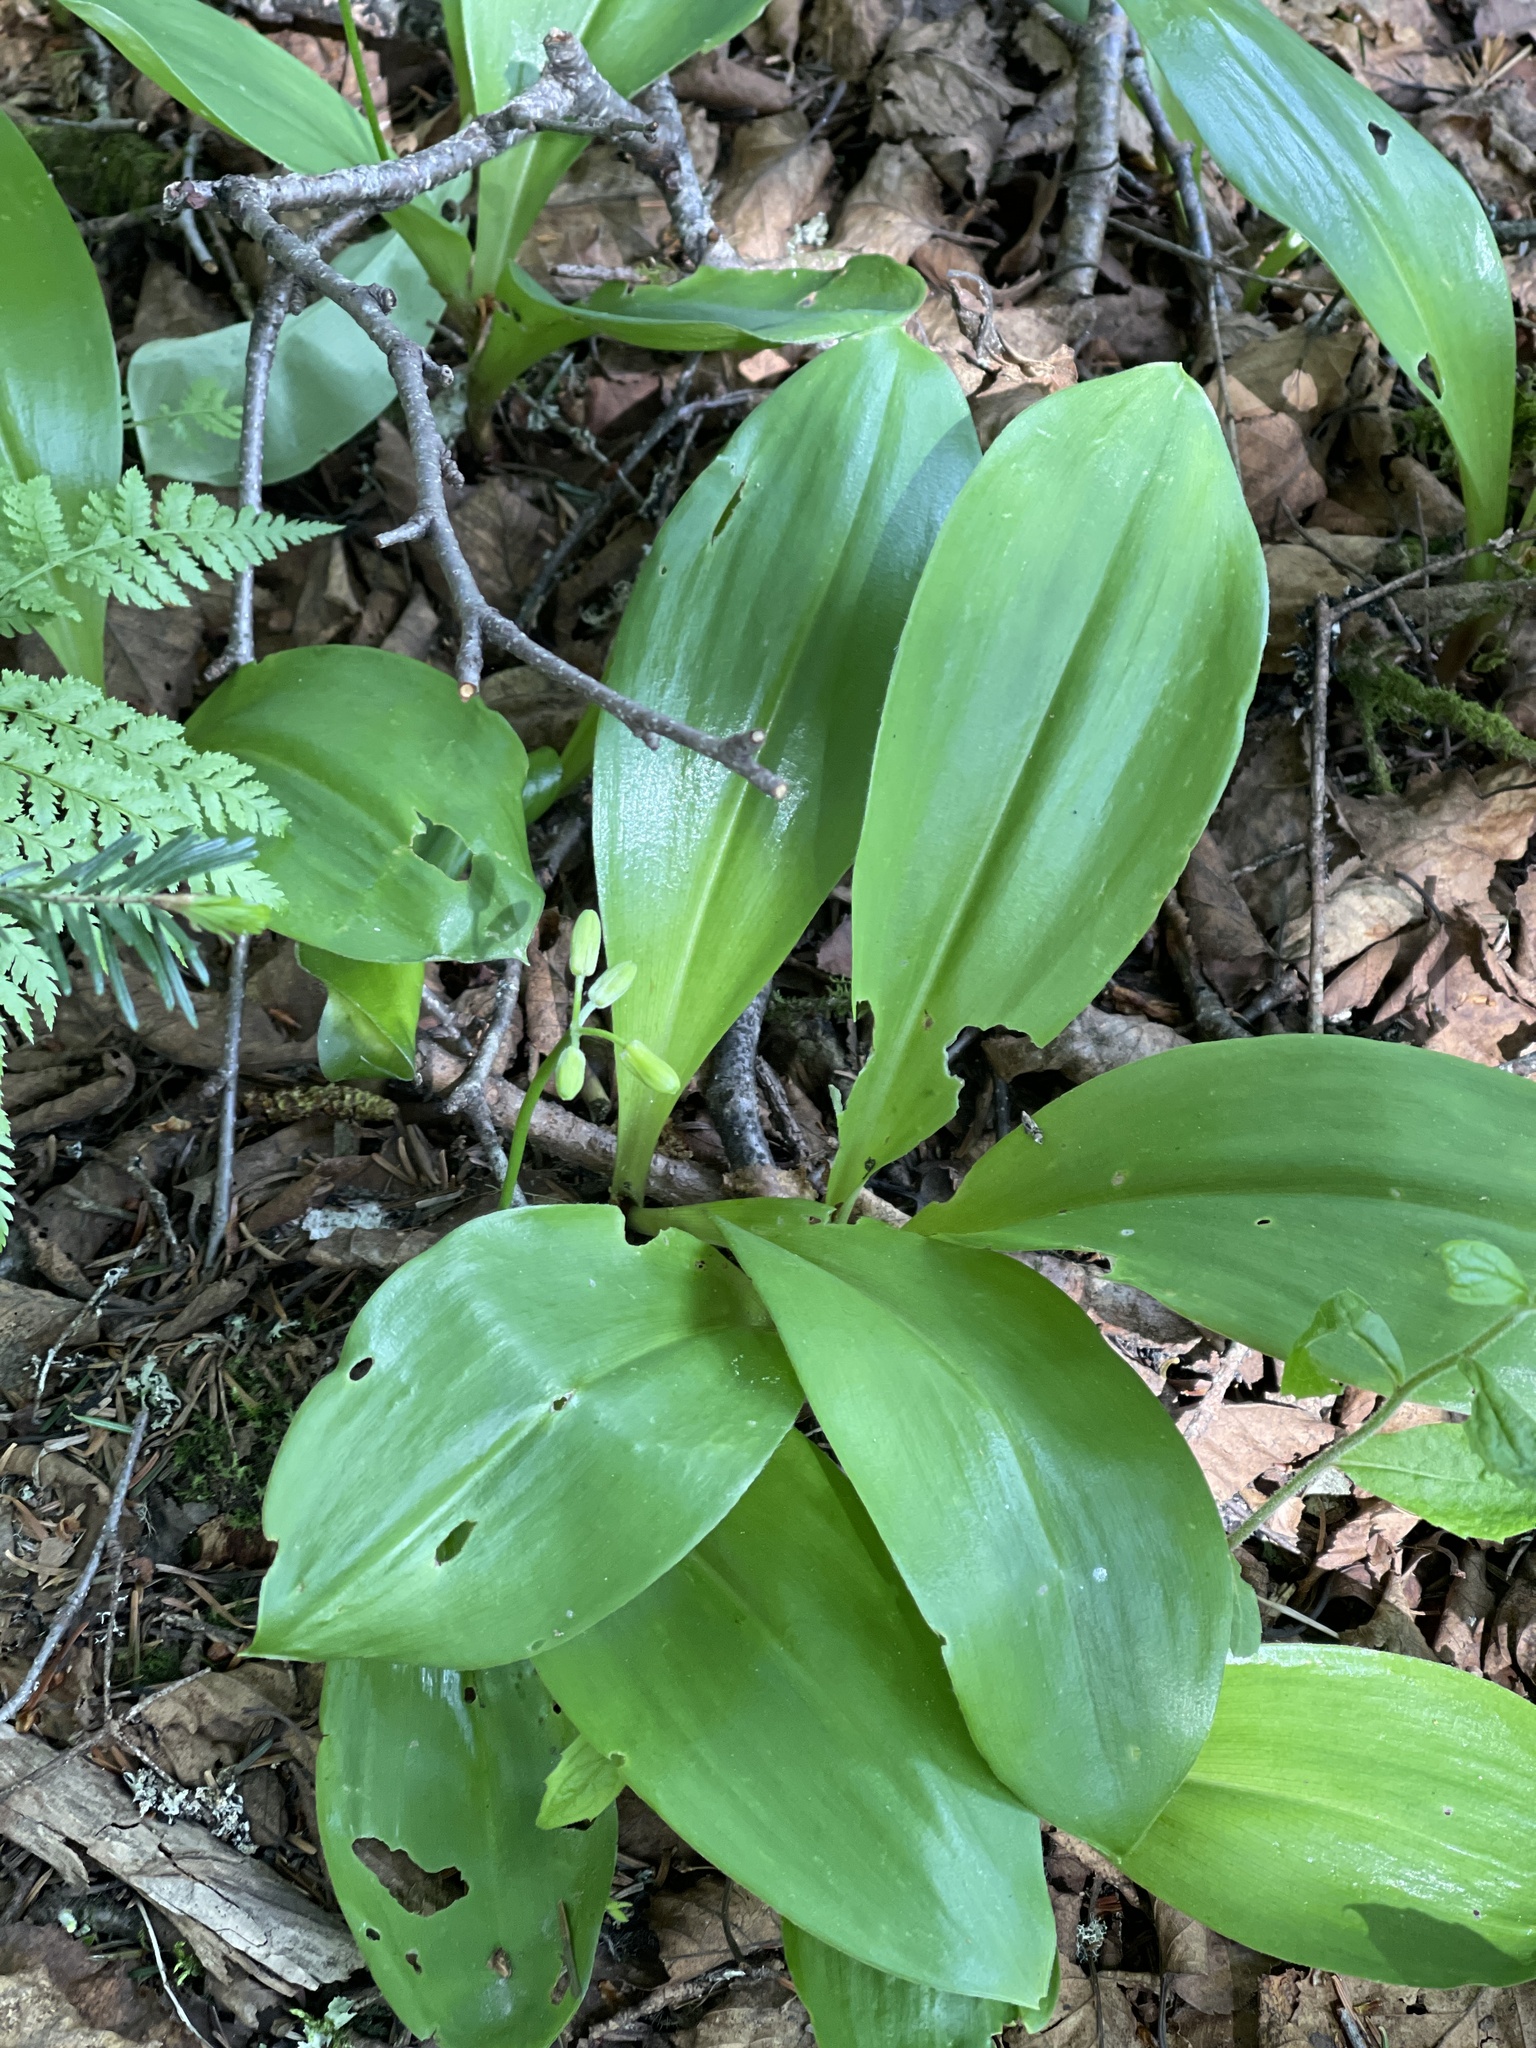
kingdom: Plantae
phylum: Tracheophyta
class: Liliopsida
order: Liliales
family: Liliaceae
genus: Clintonia
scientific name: Clintonia borealis
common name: Yellow clintonia
